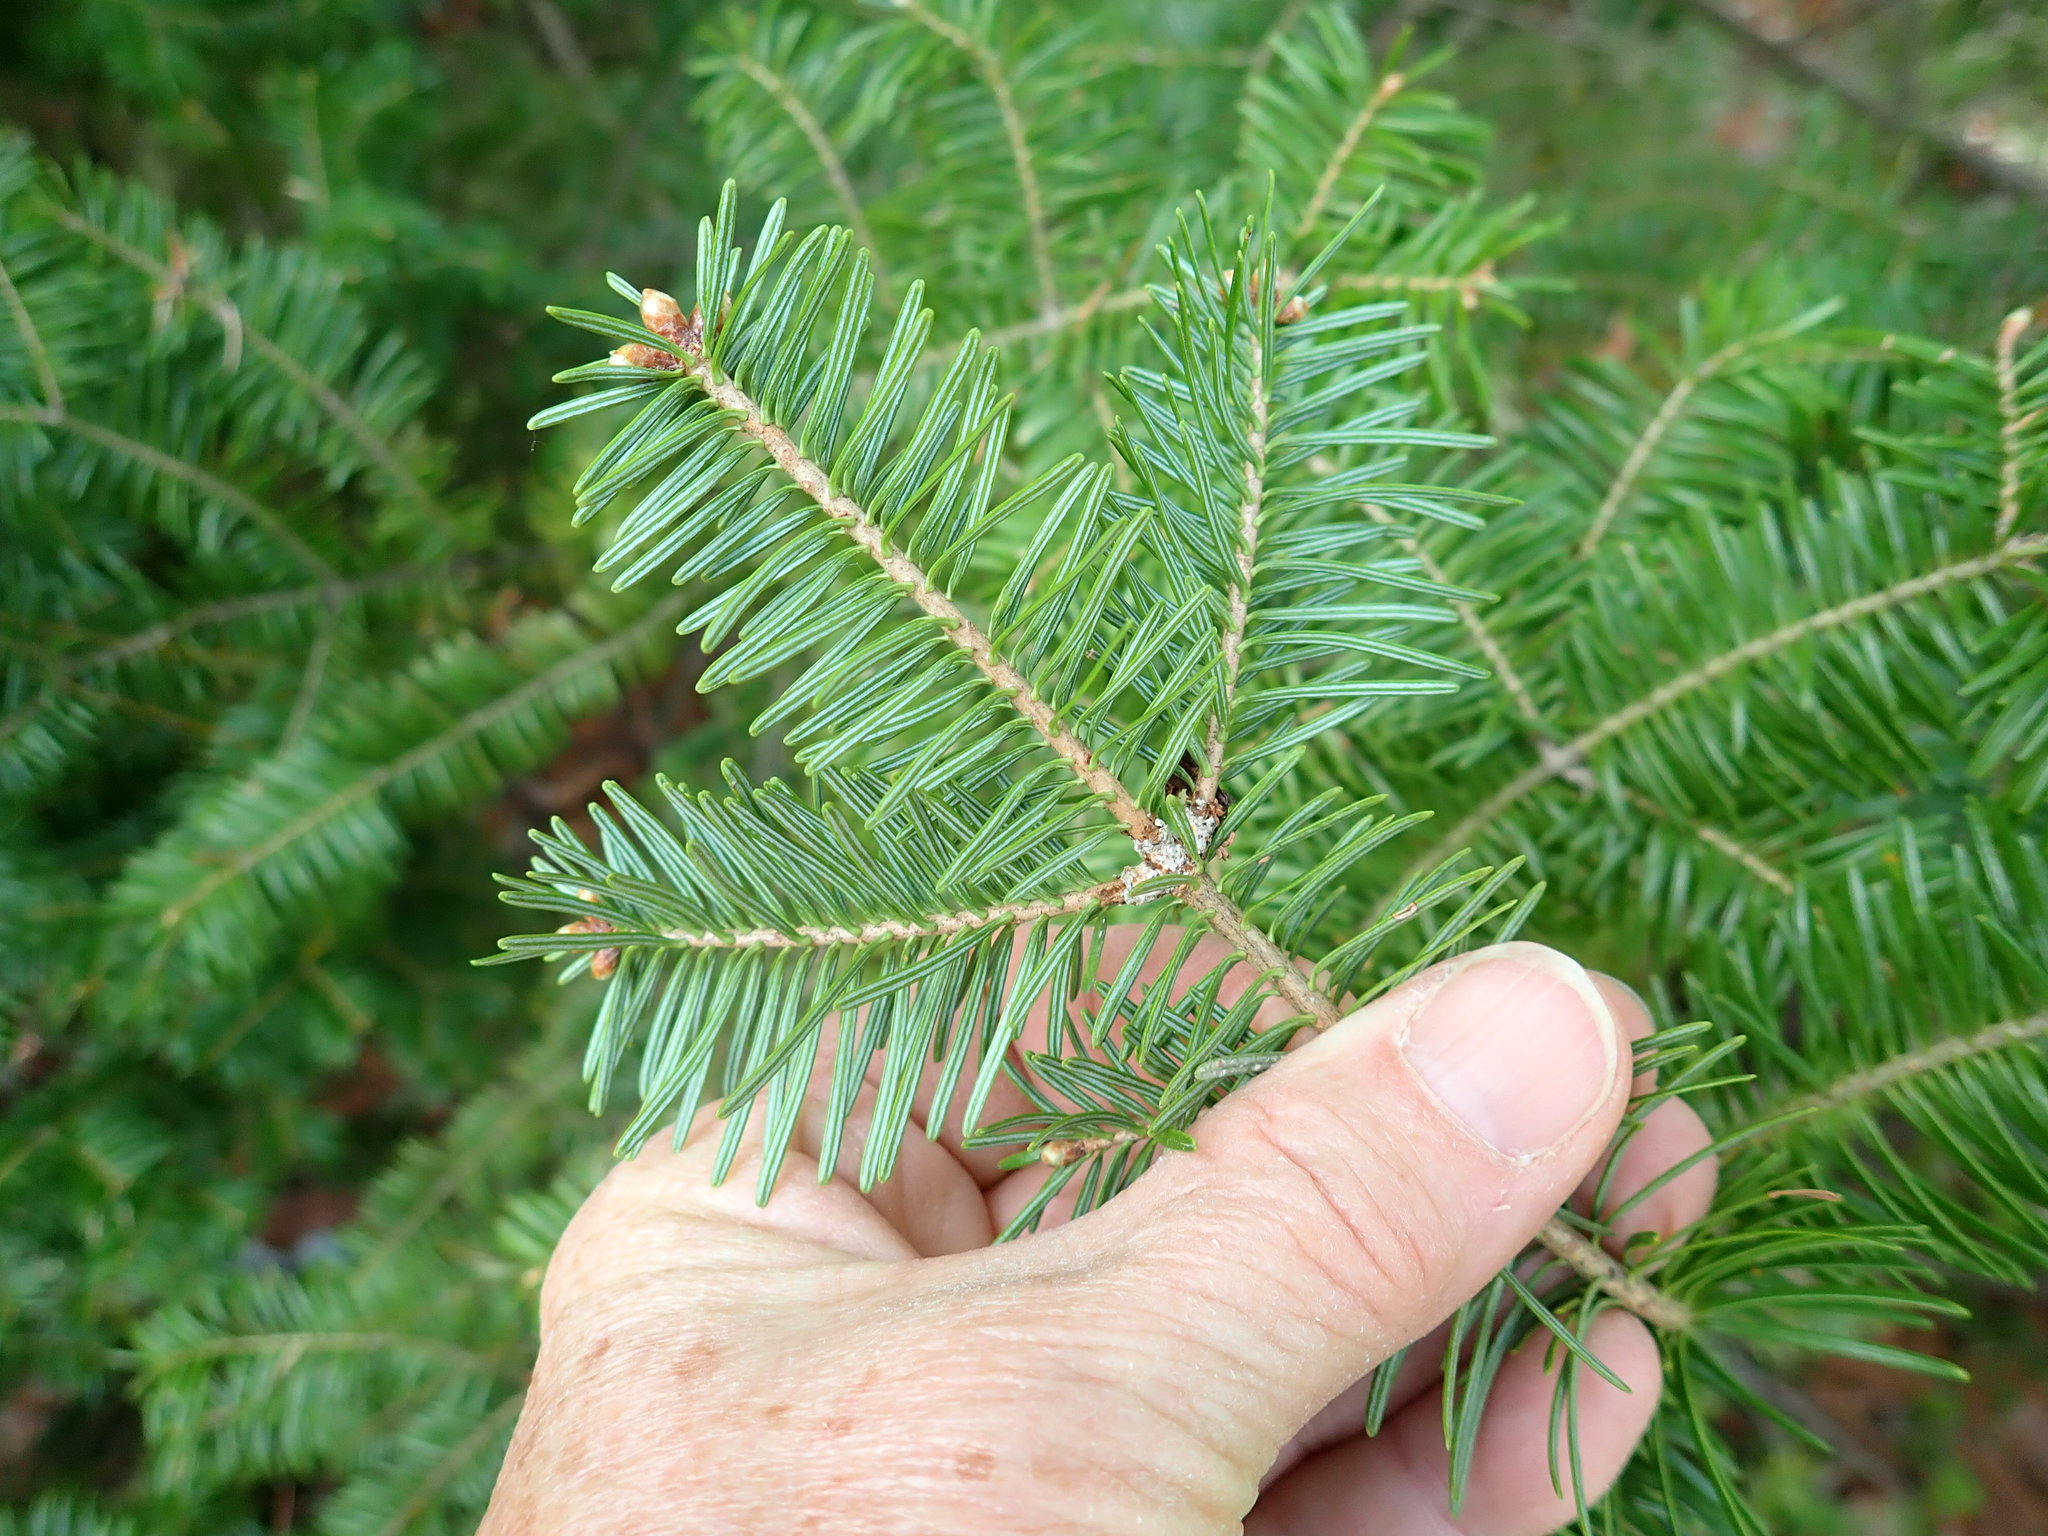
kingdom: Plantae
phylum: Tracheophyta
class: Pinopsida
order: Pinales
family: Pinaceae
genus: Abies
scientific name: Abies balsamea
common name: Balsam fir
